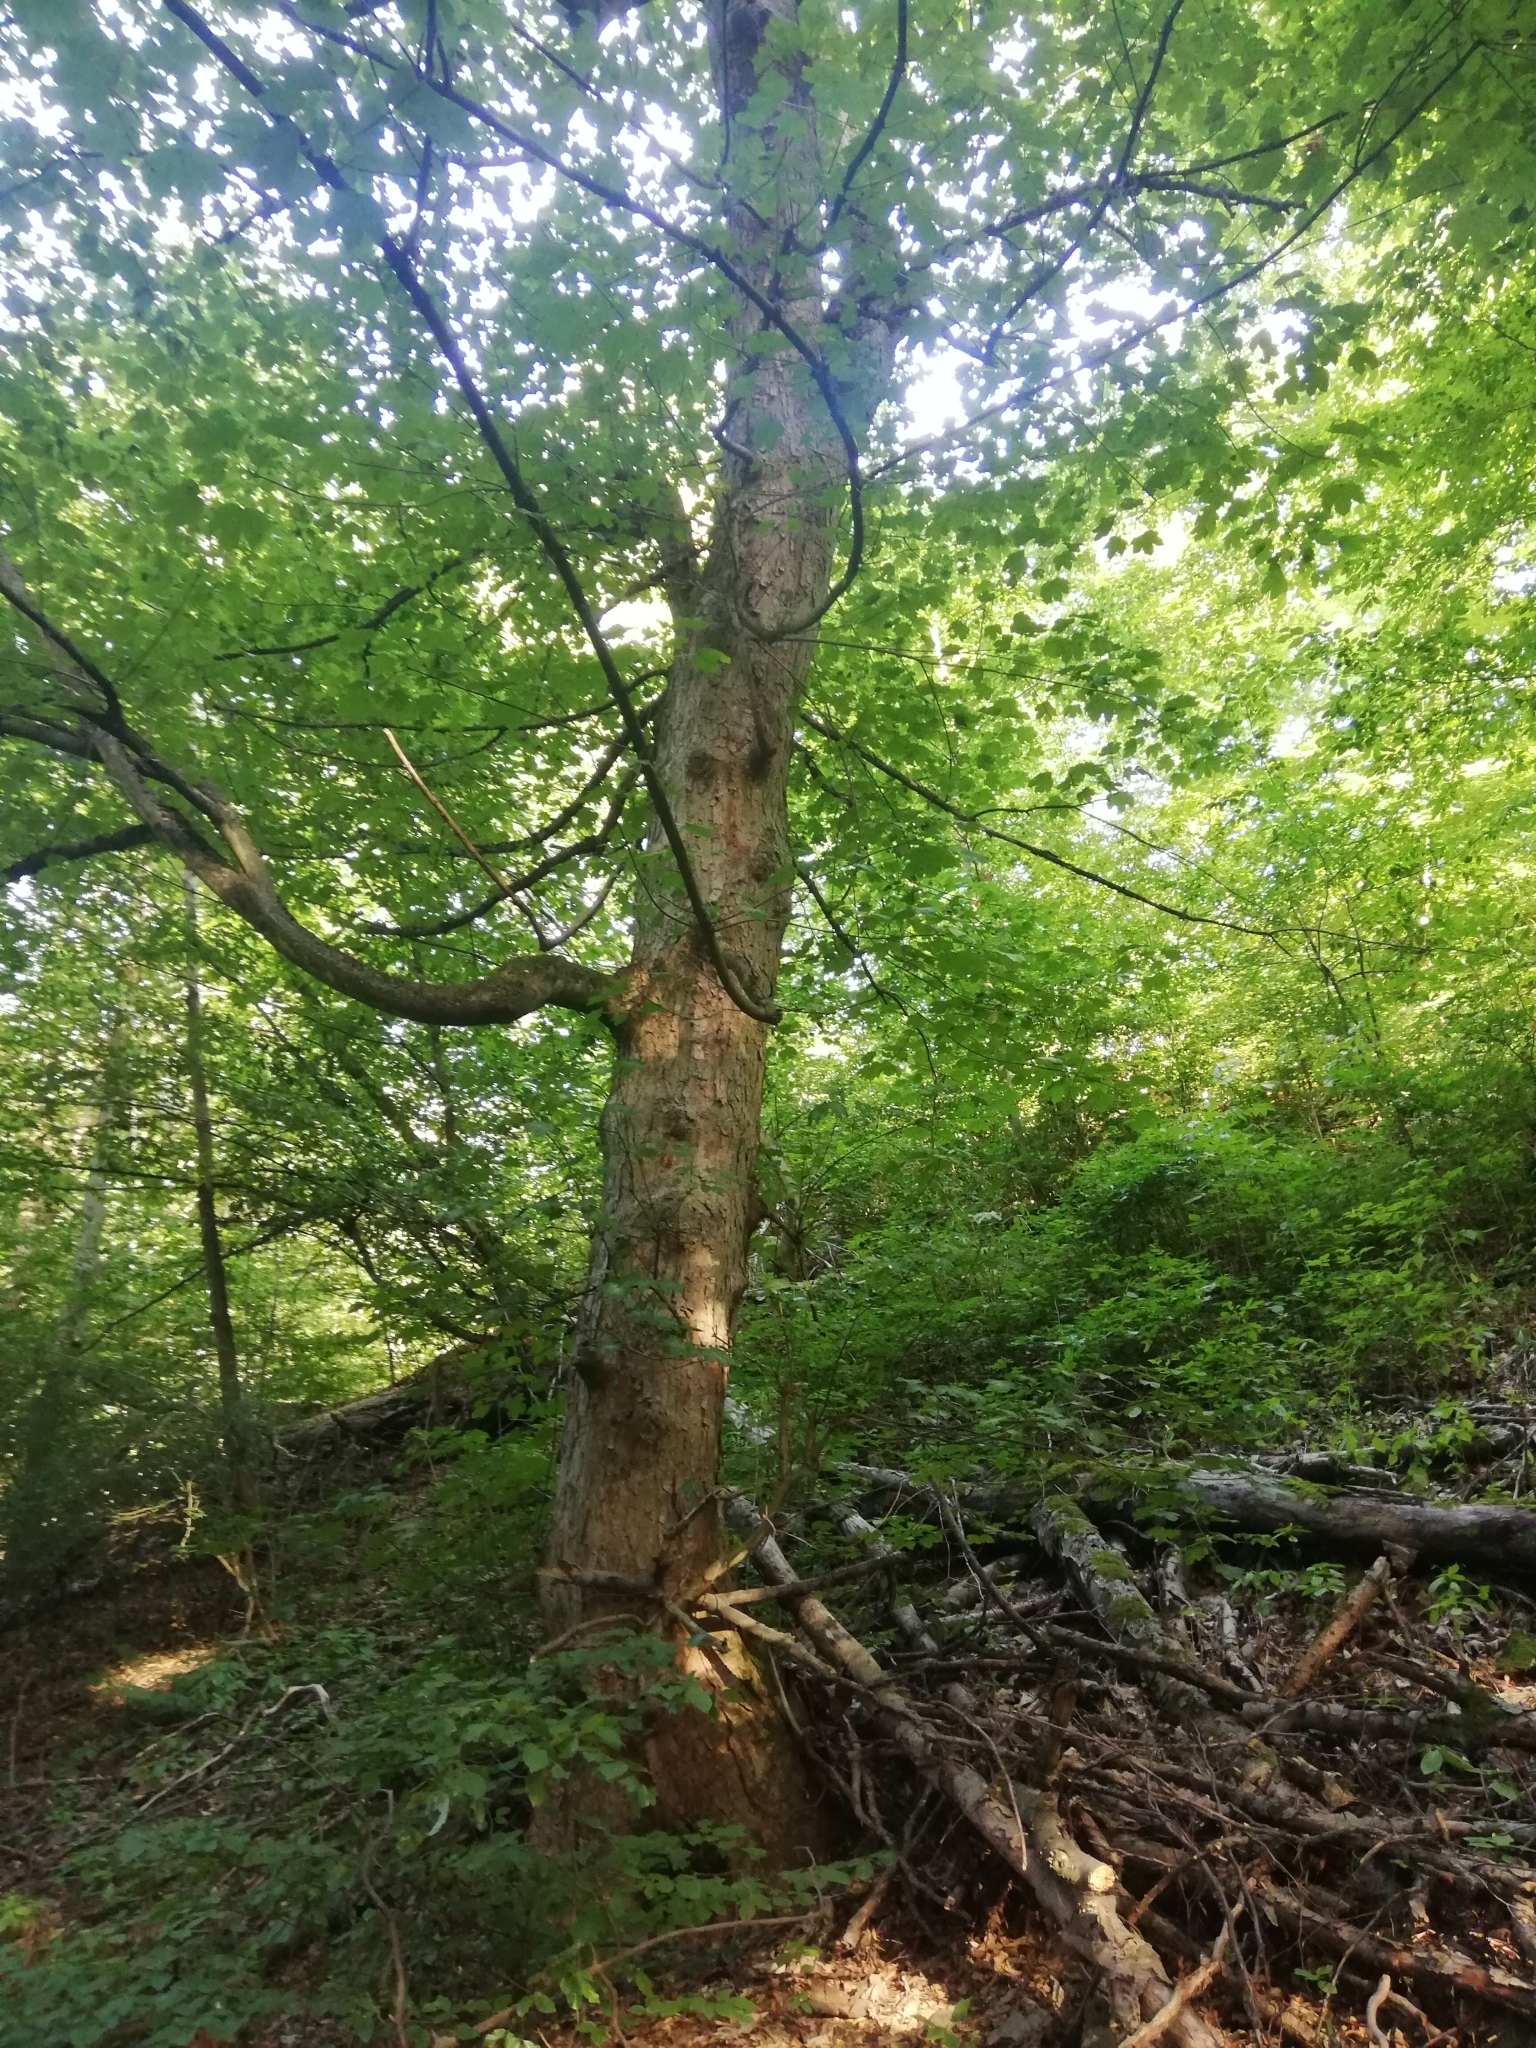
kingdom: Plantae
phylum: Tracheophyta
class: Magnoliopsida
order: Sapindales
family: Sapindaceae
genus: Acer
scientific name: Acer pseudoplatanus
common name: Sycamore
